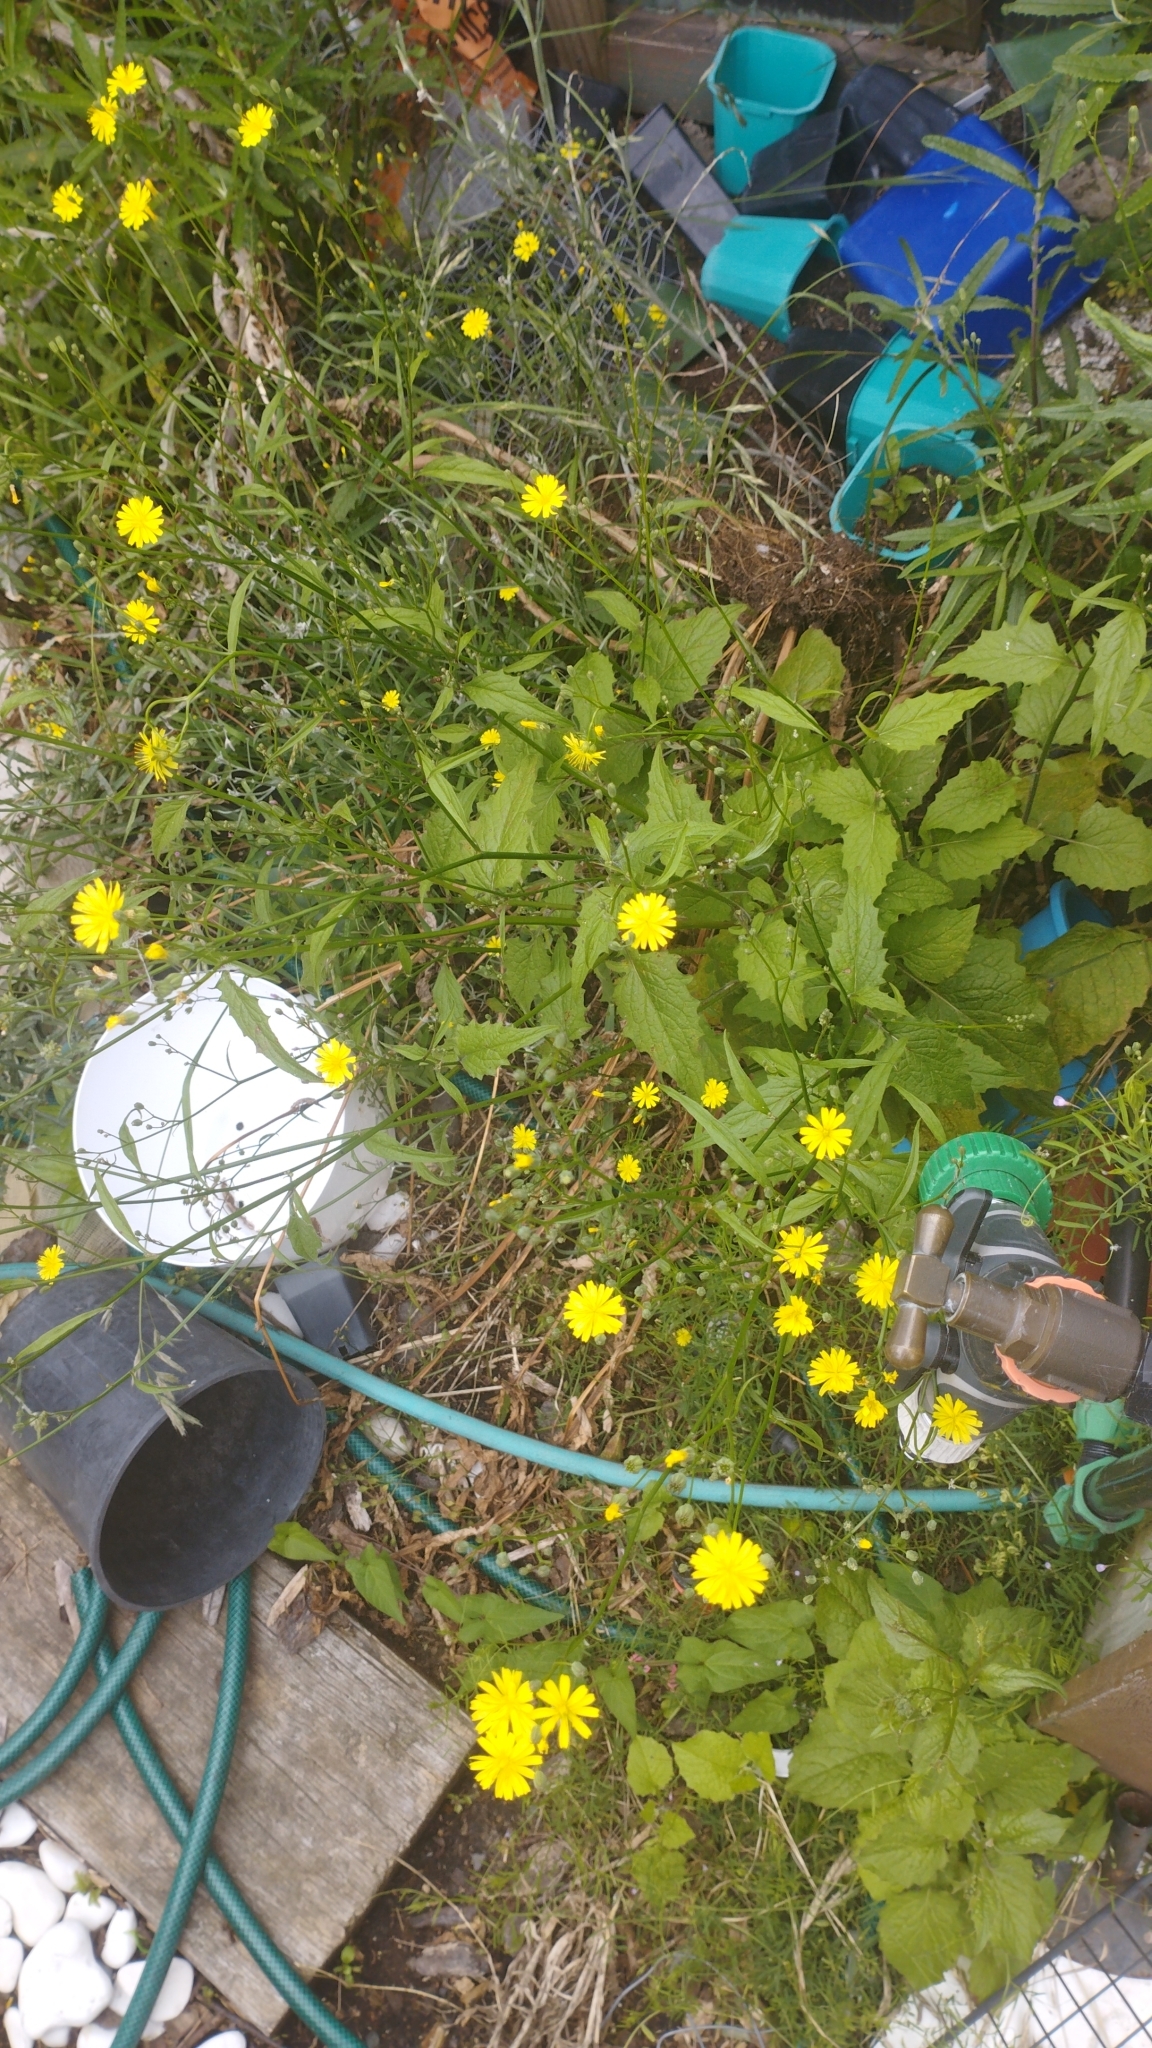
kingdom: Plantae
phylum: Tracheophyta
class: Magnoliopsida
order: Asterales
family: Asteraceae
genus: Lapsana
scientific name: Lapsana communis
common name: Nipplewort
